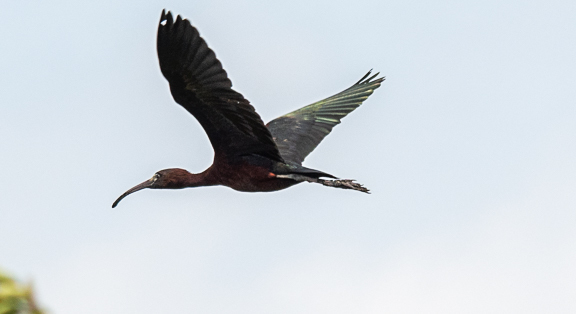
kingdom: Animalia
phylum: Chordata
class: Aves
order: Pelecaniformes
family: Threskiornithidae
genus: Plegadis
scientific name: Plegadis falcinellus
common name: Glossy ibis
